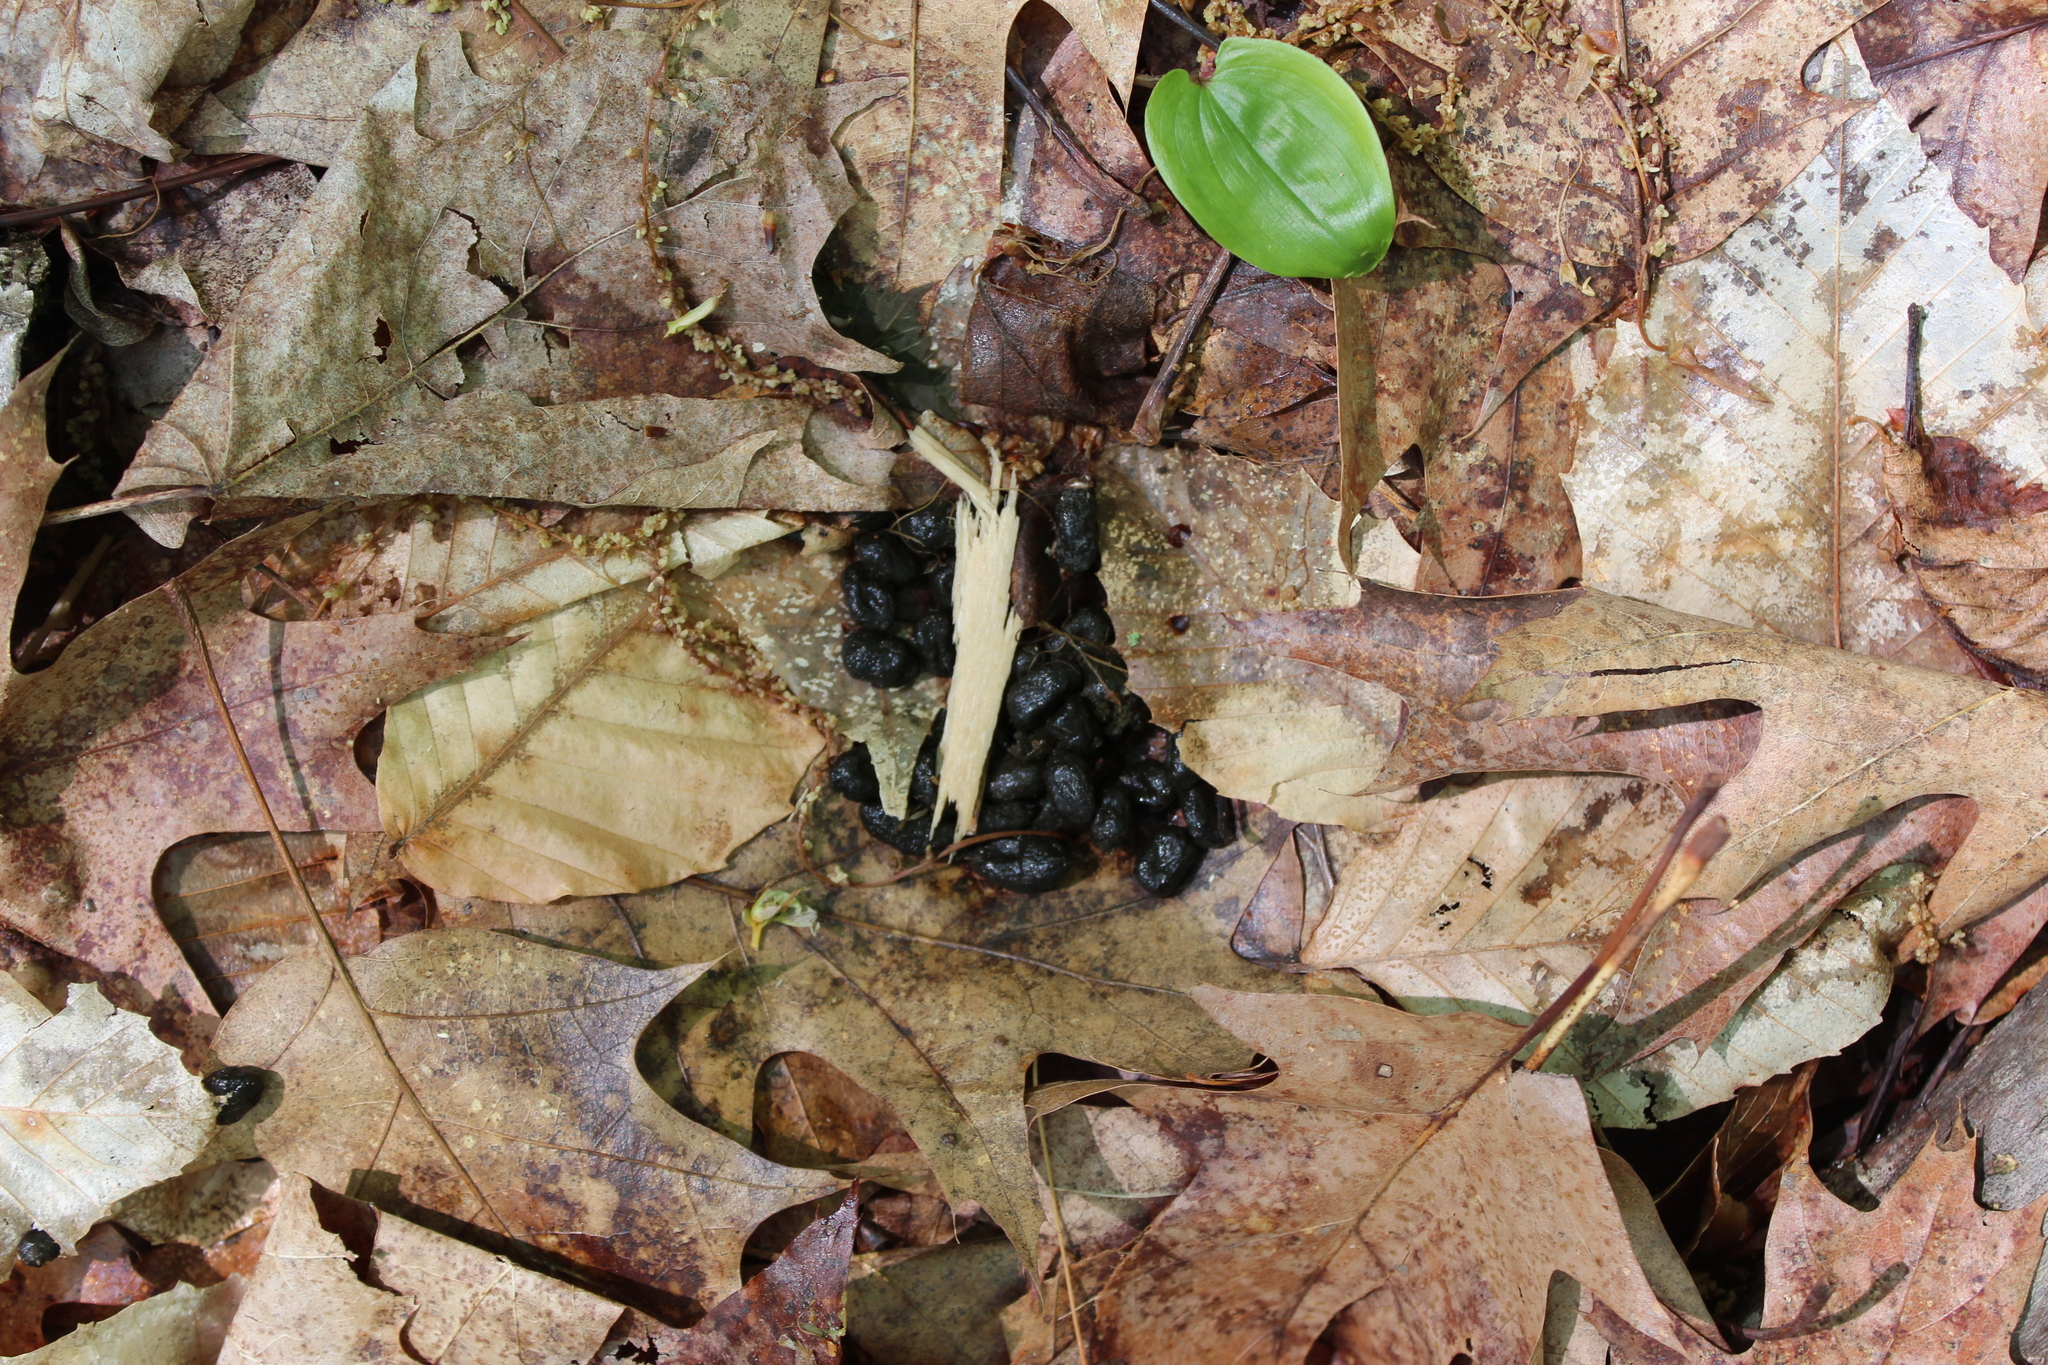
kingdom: Animalia
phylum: Chordata
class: Mammalia
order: Artiodactyla
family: Cervidae
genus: Odocoileus
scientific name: Odocoileus virginianus
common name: White-tailed deer
